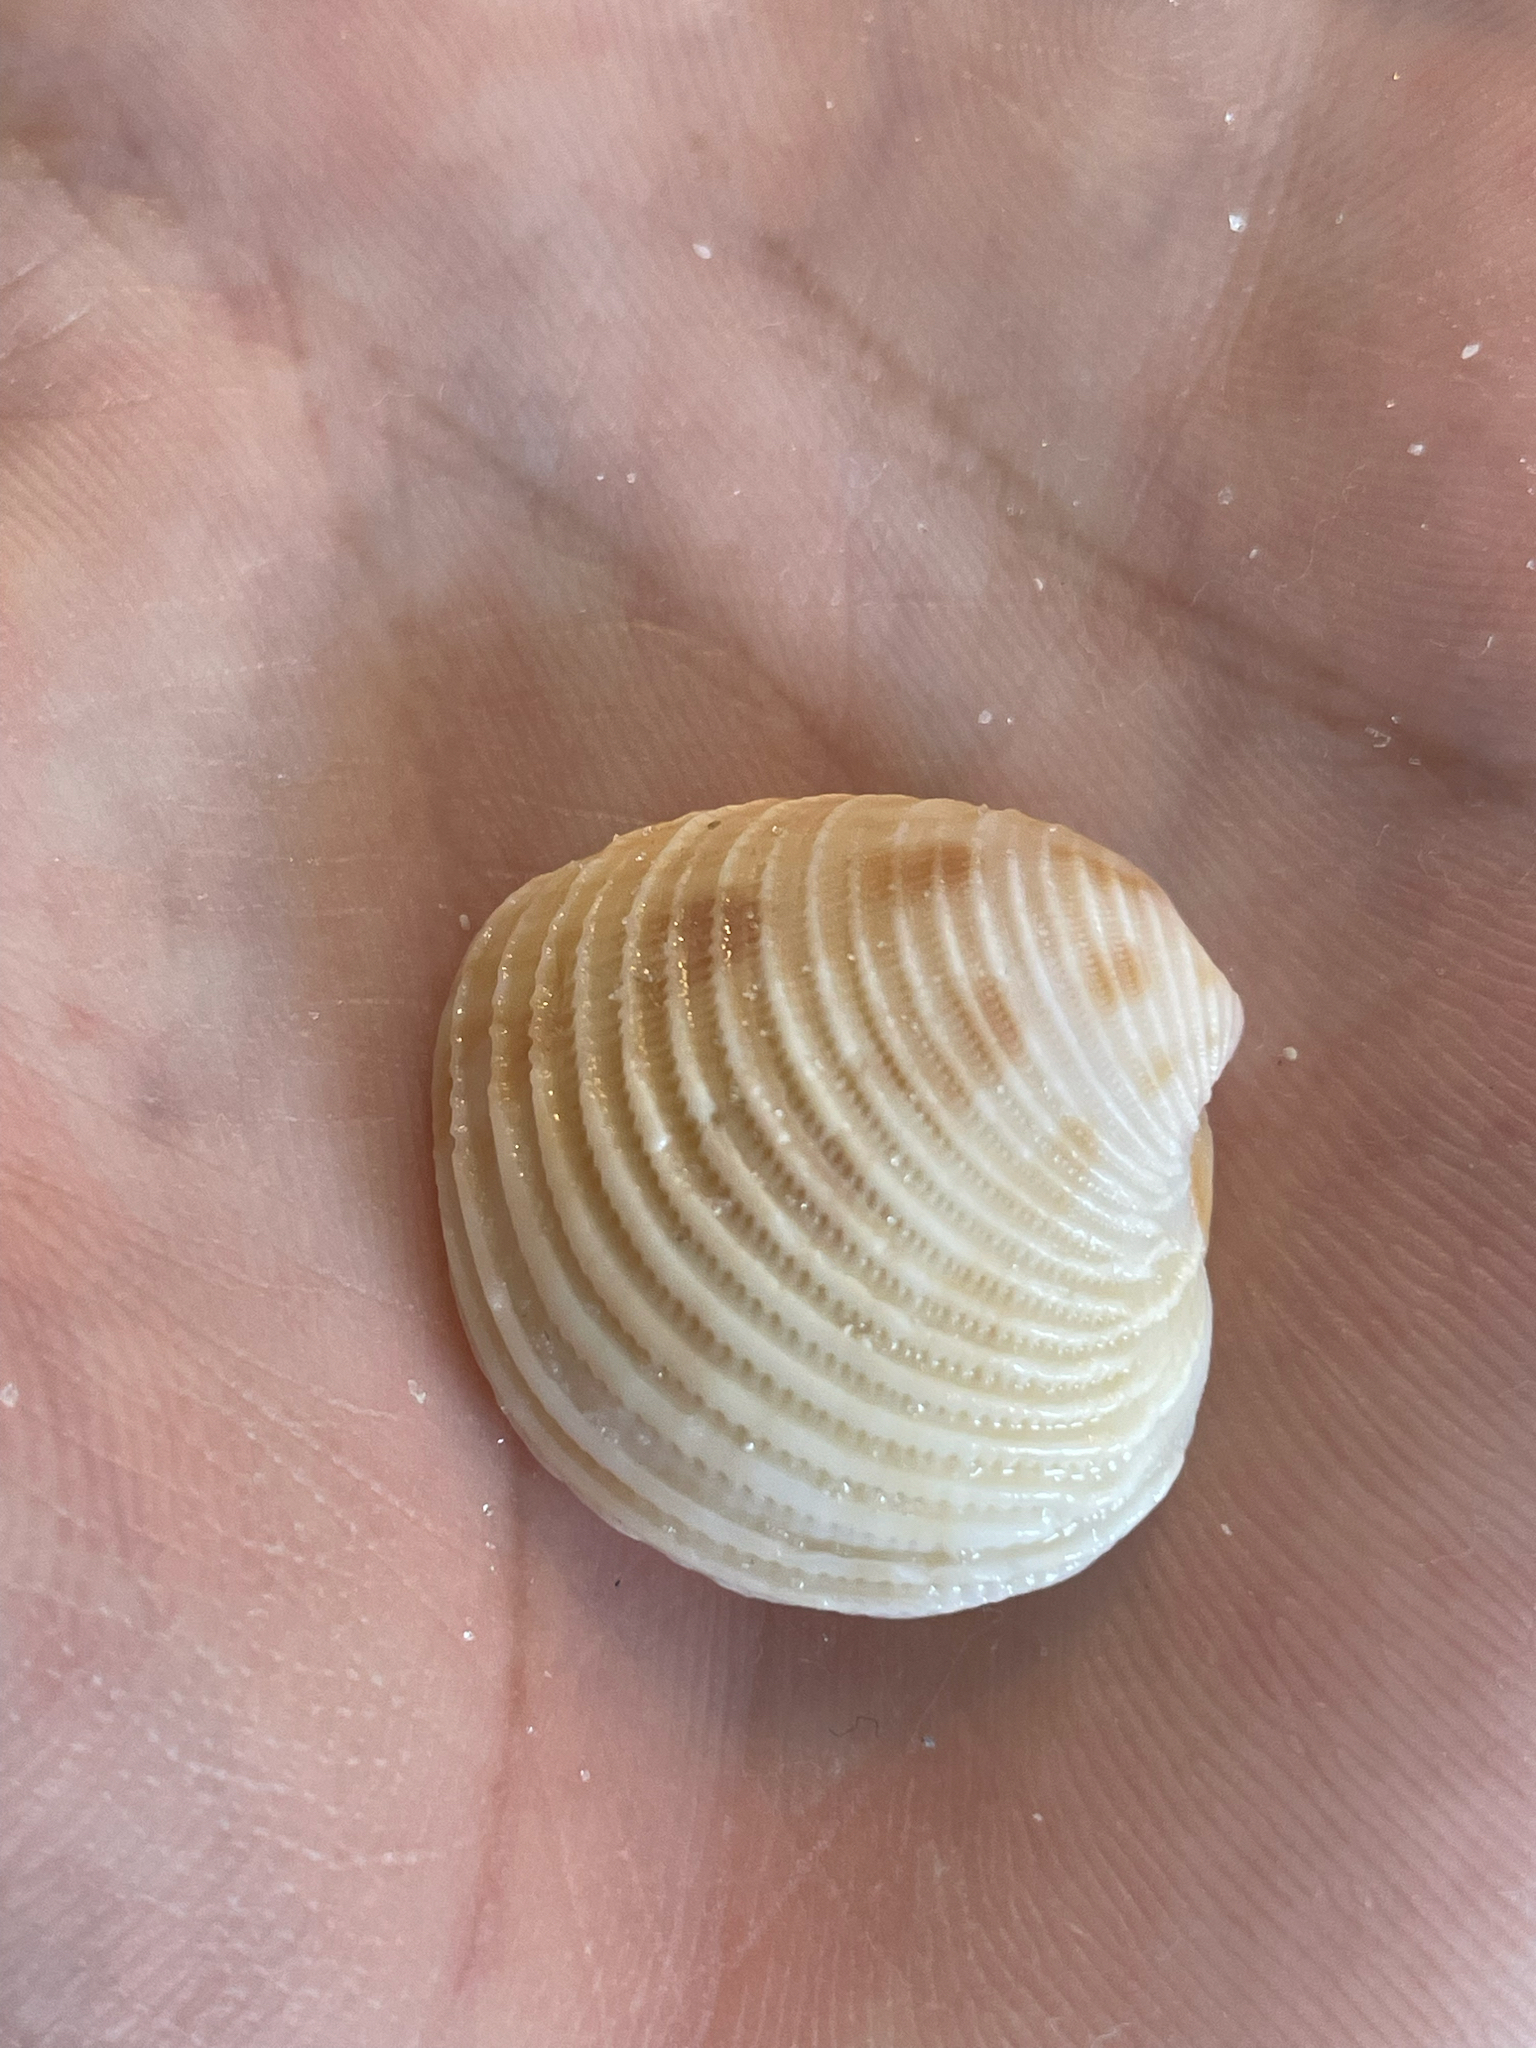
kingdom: Animalia
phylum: Mollusca
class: Bivalvia
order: Venerida
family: Veneridae
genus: Chionopsis
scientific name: Chionopsis intapurpurea
